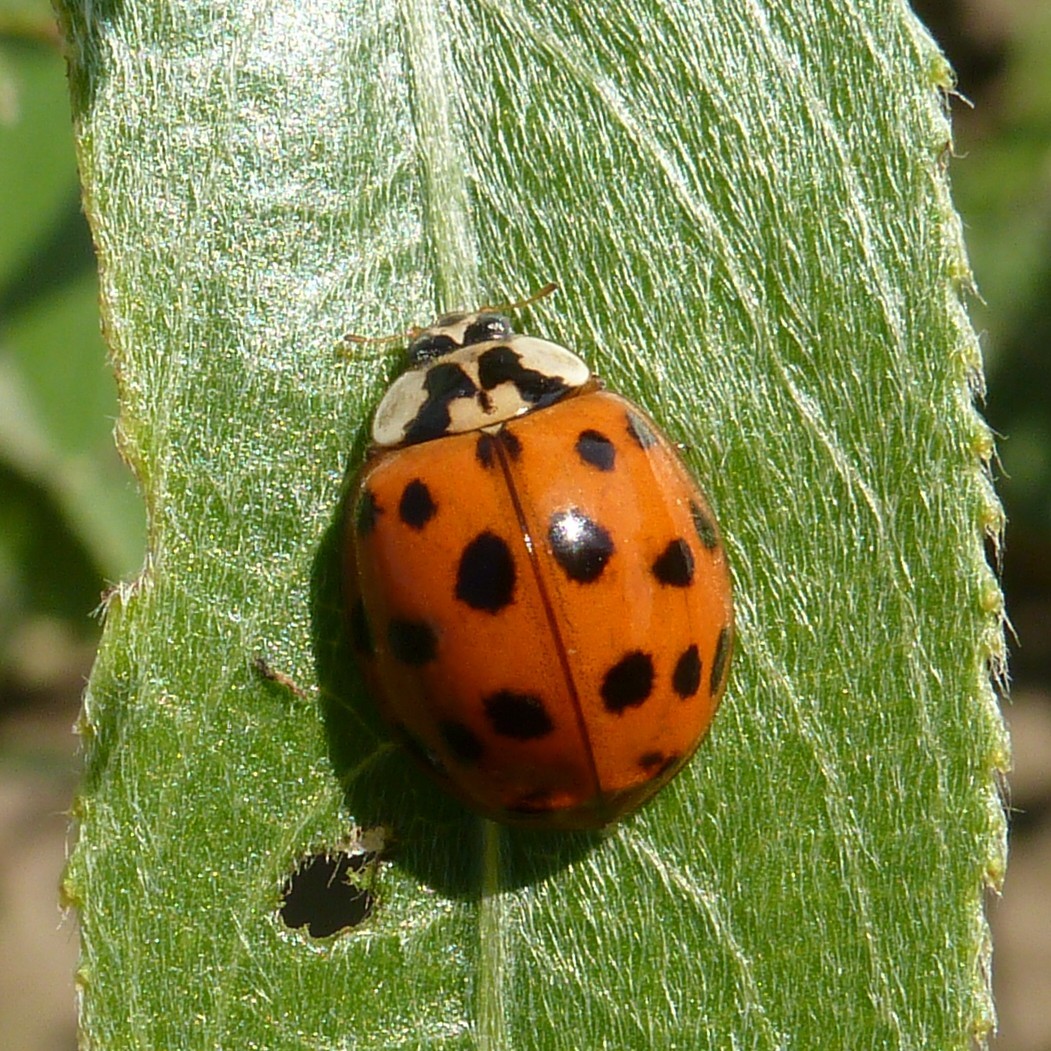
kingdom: Animalia
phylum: Arthropoda
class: Insecta
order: Coleoptera
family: Coccinellidae
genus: Harmonia
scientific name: Harmonia axyridis
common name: Harlequin ladybird
